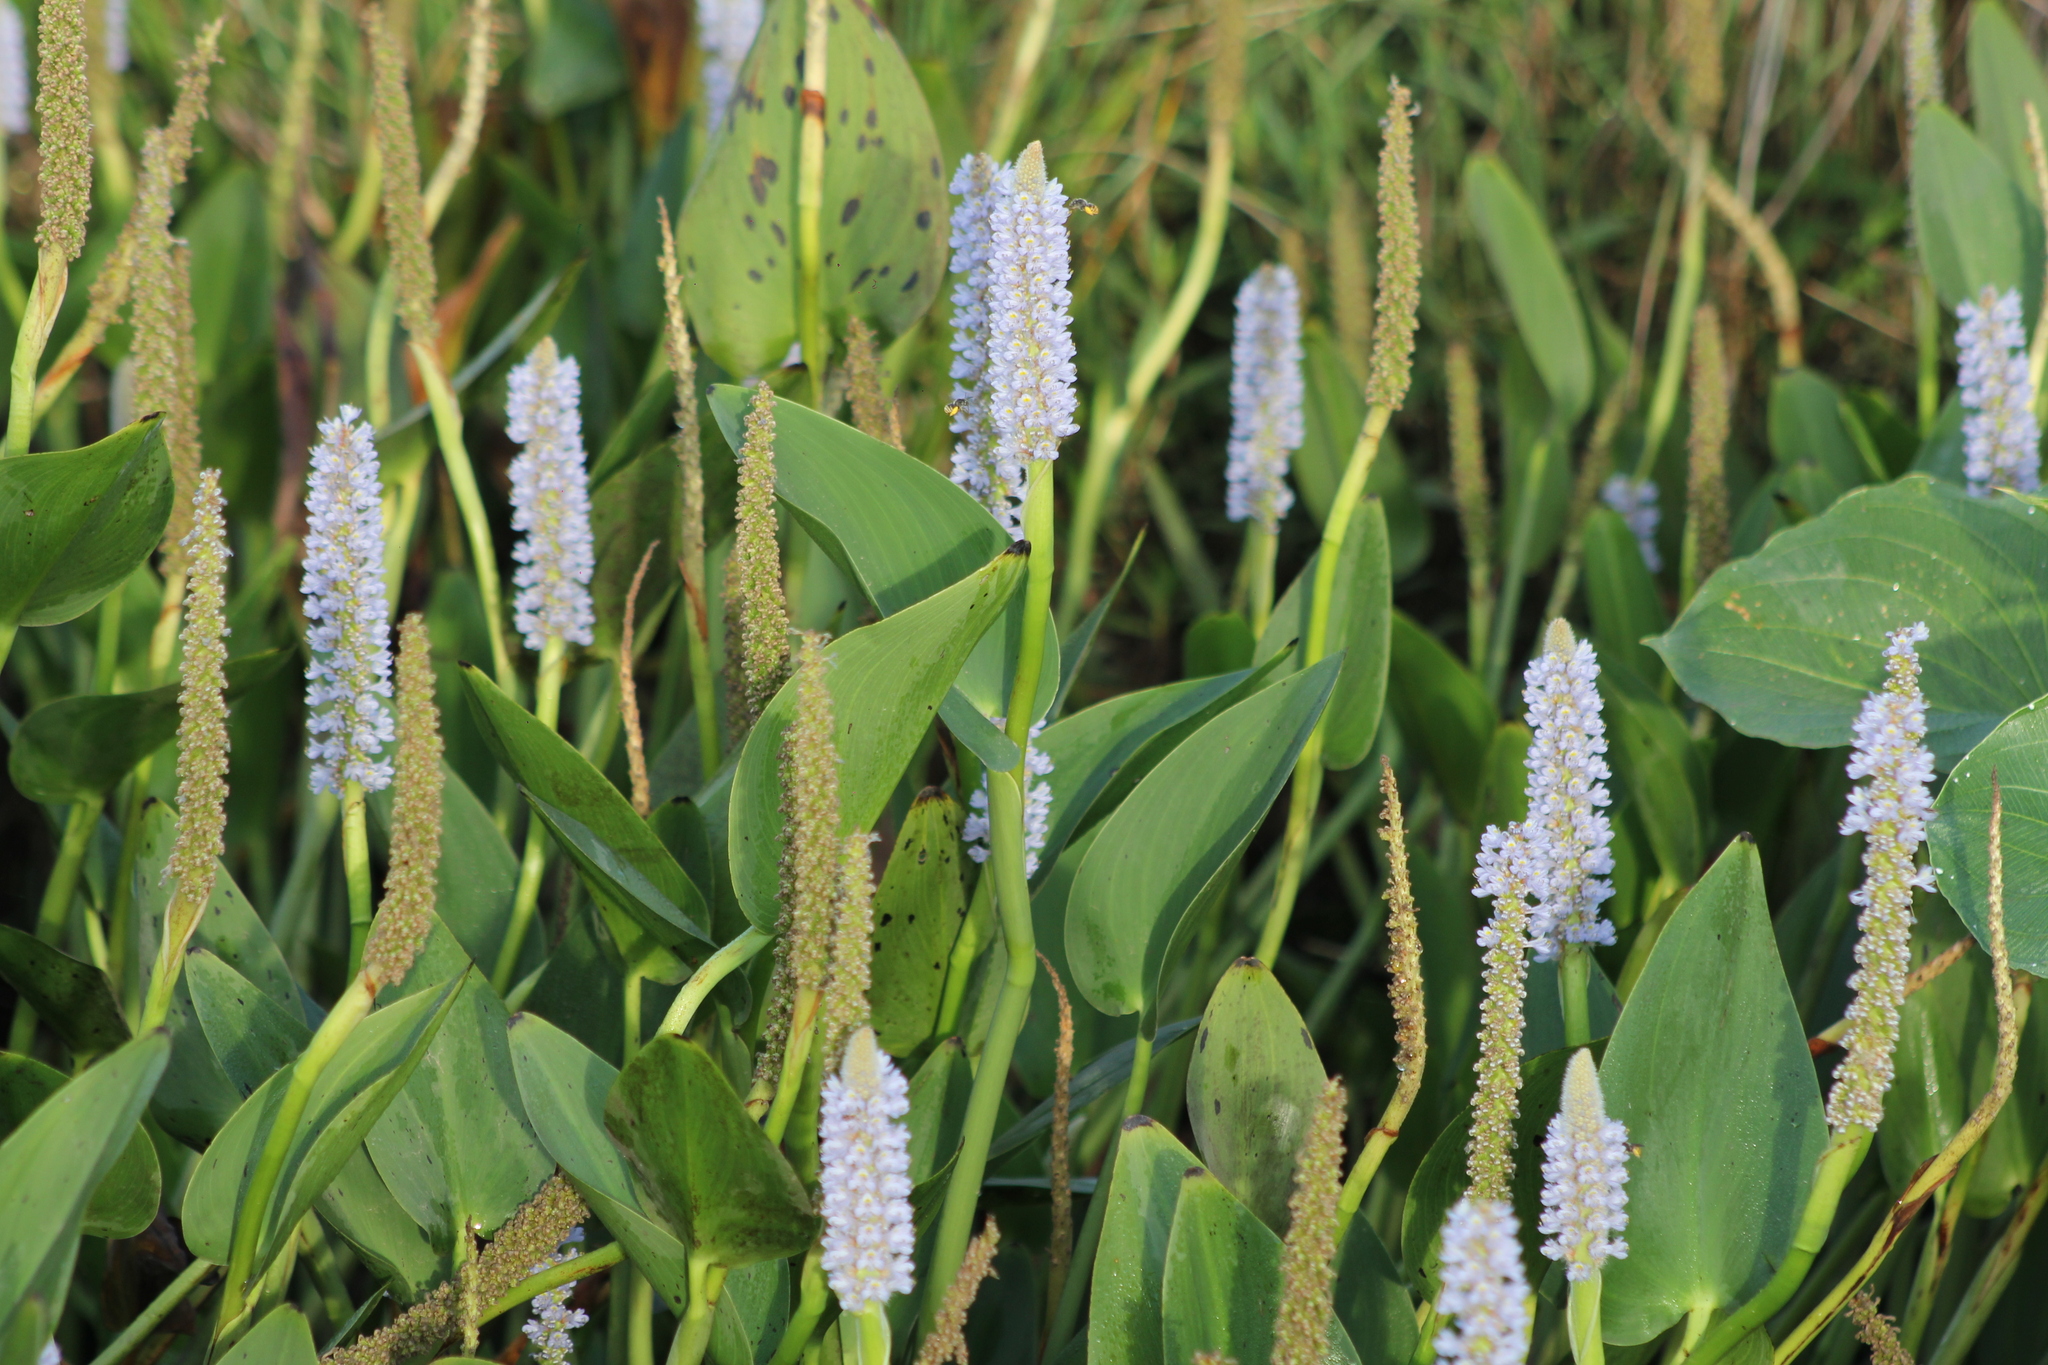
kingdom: Plantae
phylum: Tracheophyta
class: Liliopsida
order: Commelinales
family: Pontederiaceae
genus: Pontederia
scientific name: Pontederia cordata
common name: Pickerelweed
